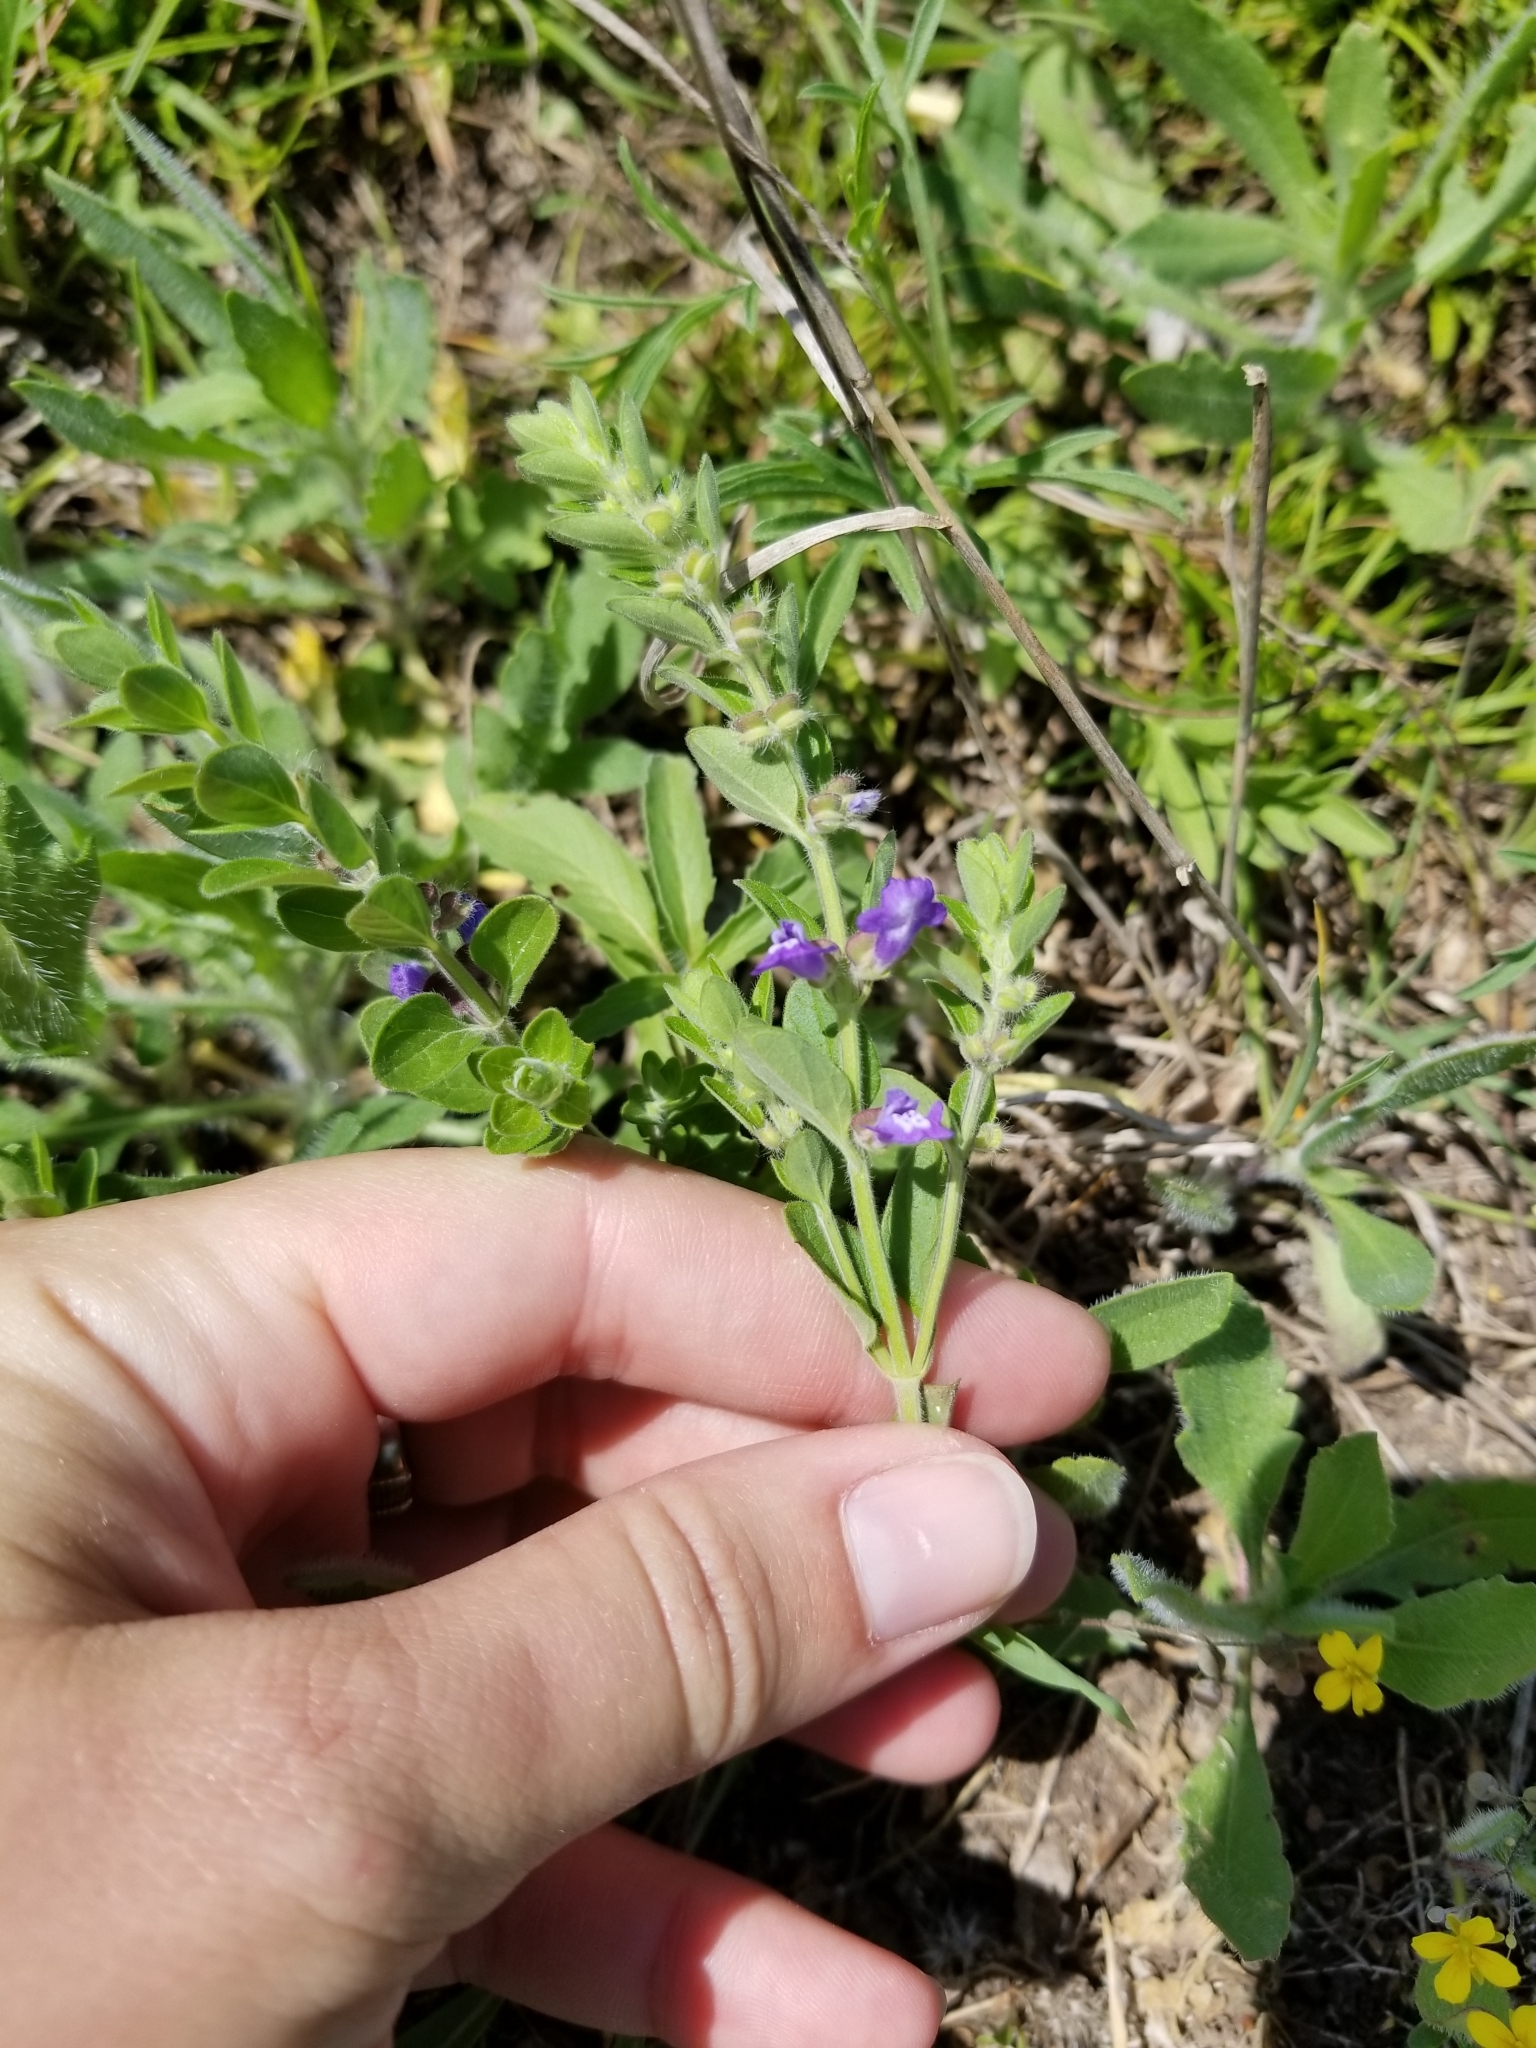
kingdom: Plantae
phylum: Tracheophyta
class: Magnoliopsida
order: Lamiales
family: Lamiaceae
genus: Scutellaria
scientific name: Scutellaria drummondii
